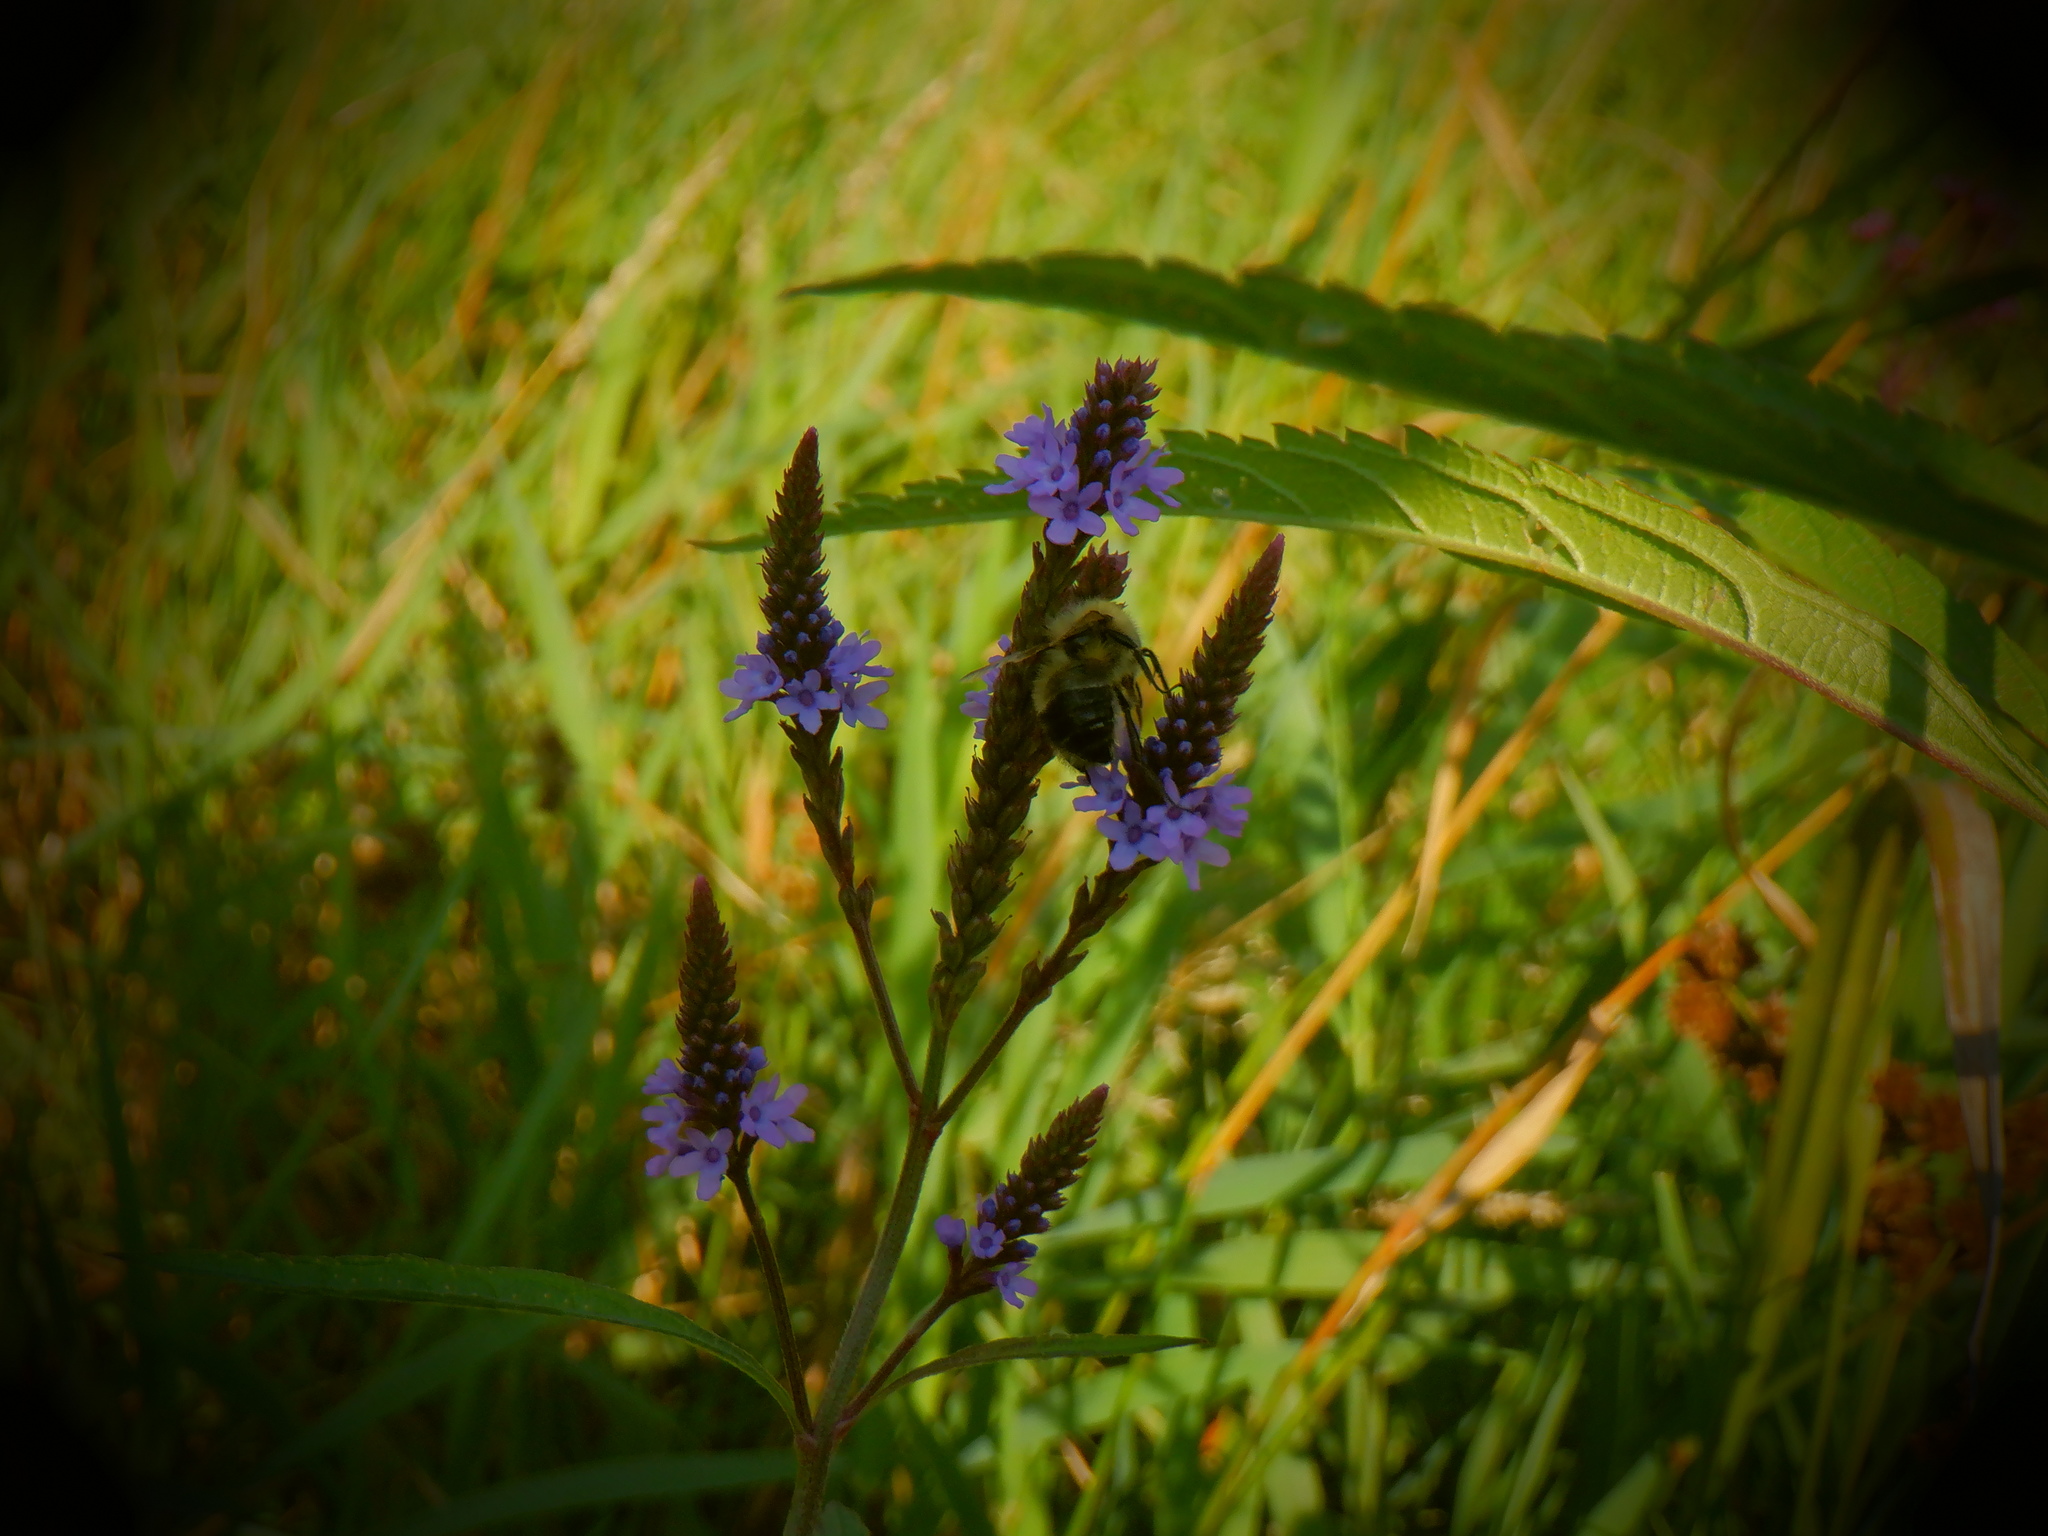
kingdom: Plantae
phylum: Tracheophyta
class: Magnoliopsida
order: Lamiales
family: Verbenaceae
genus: Verbena
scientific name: Verbena hastata
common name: American blue vervain
